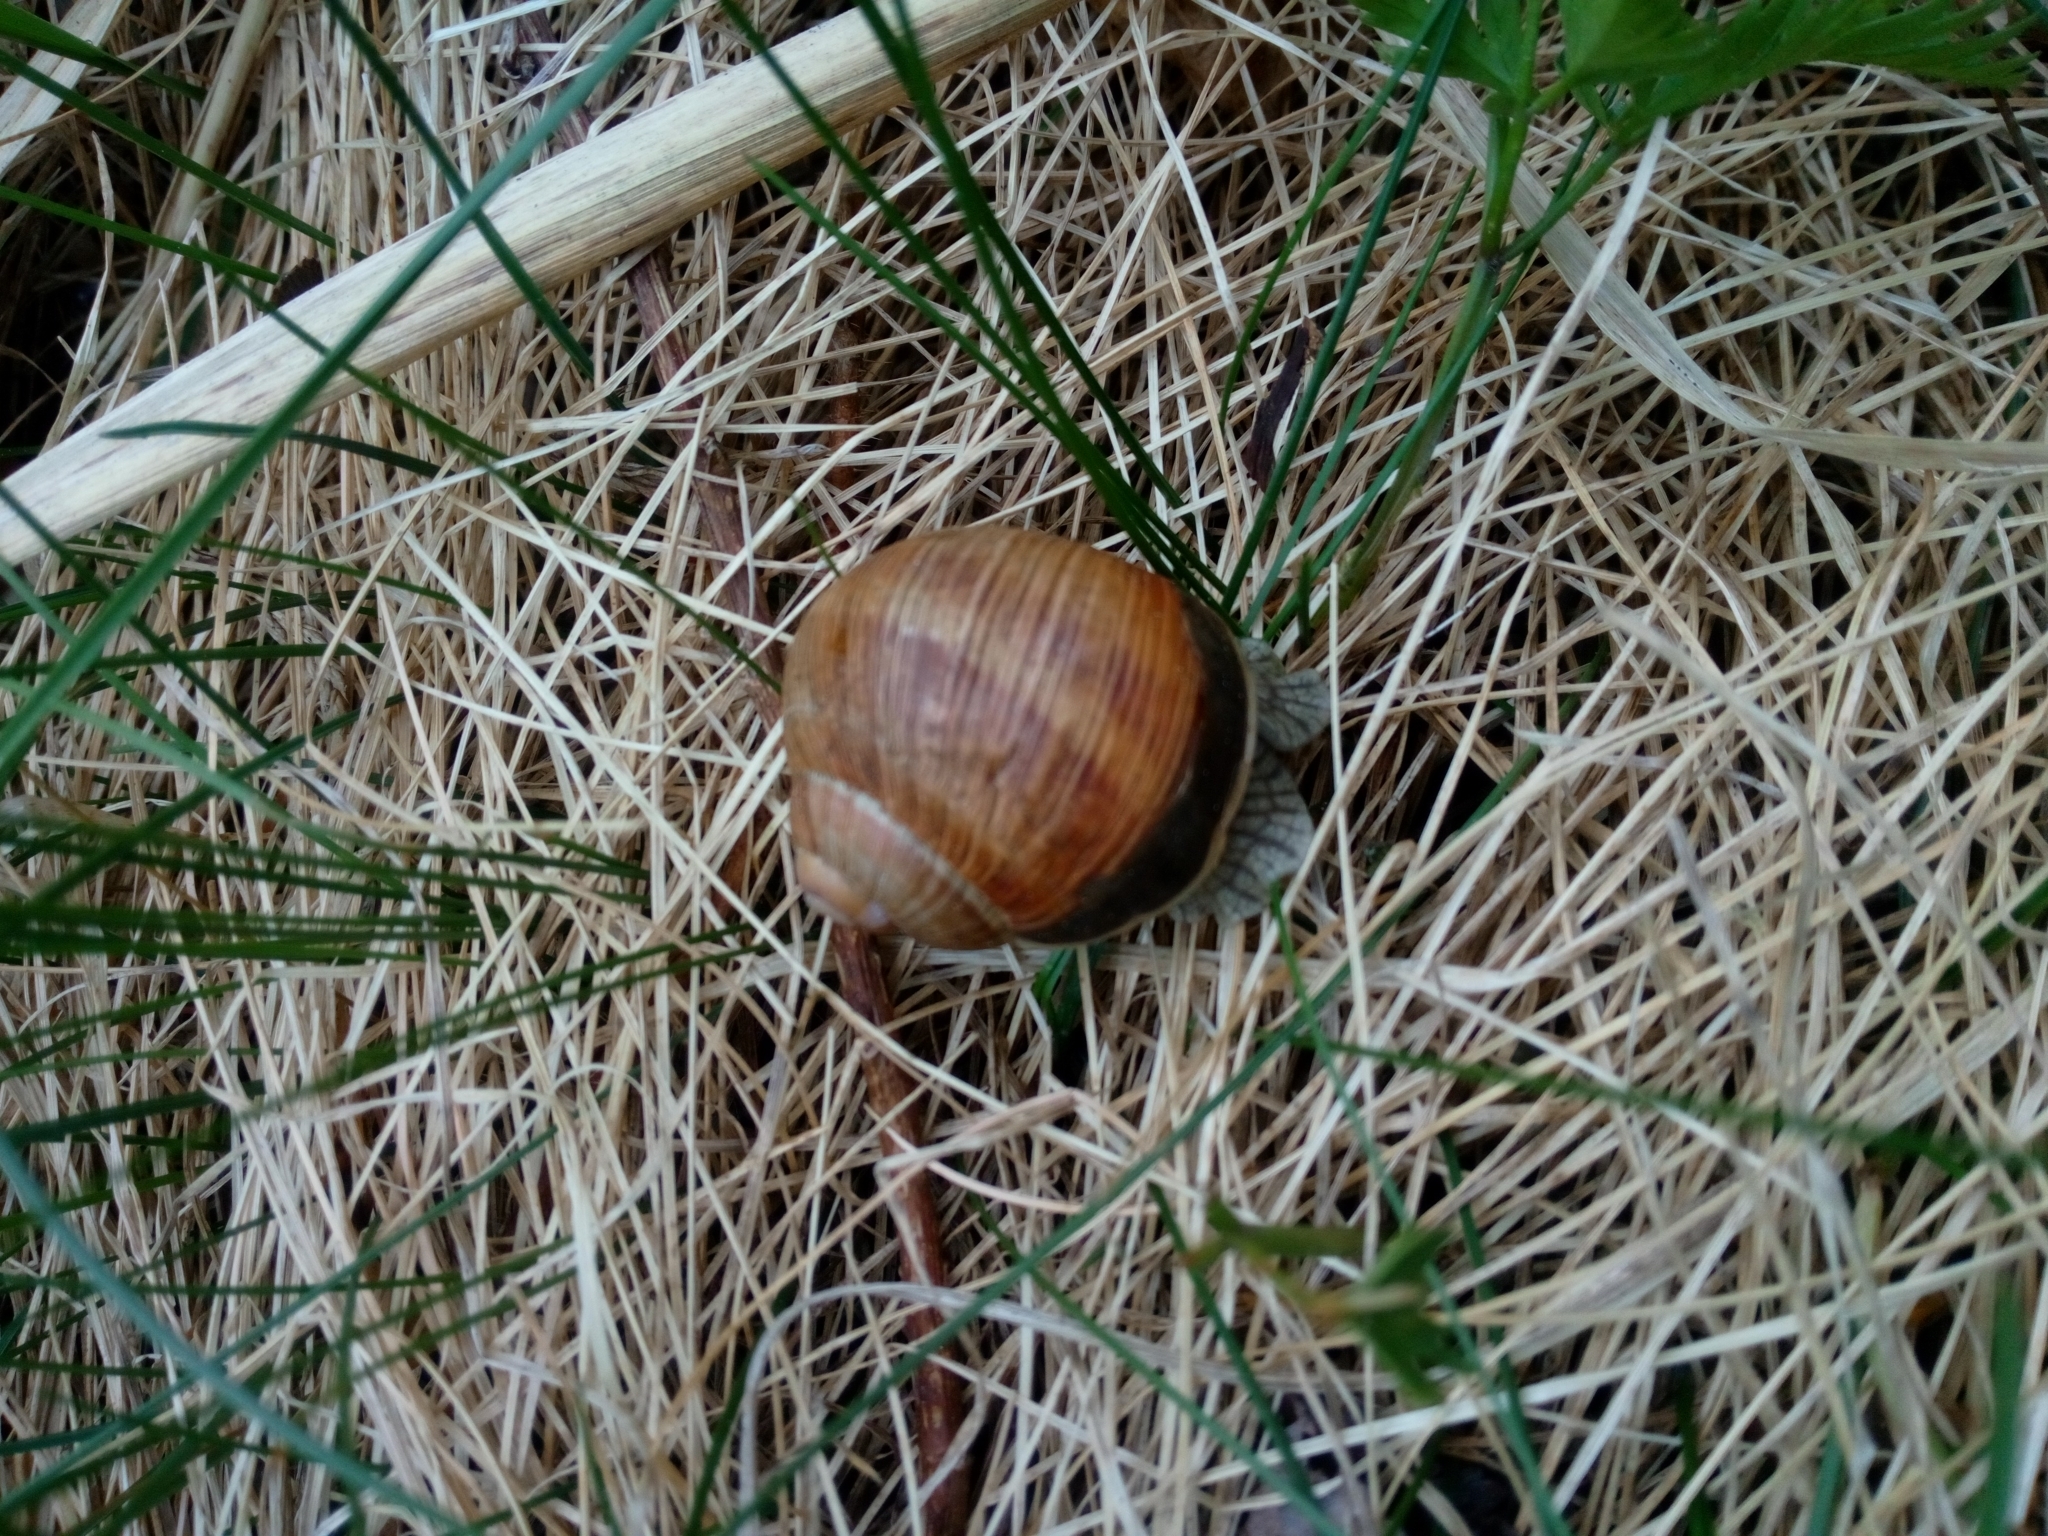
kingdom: Animalia
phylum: Mollusca
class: Gastropoda
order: Stylommatophora
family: Helicidae
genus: Helix
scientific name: Helix pomatia
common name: Roman snail
